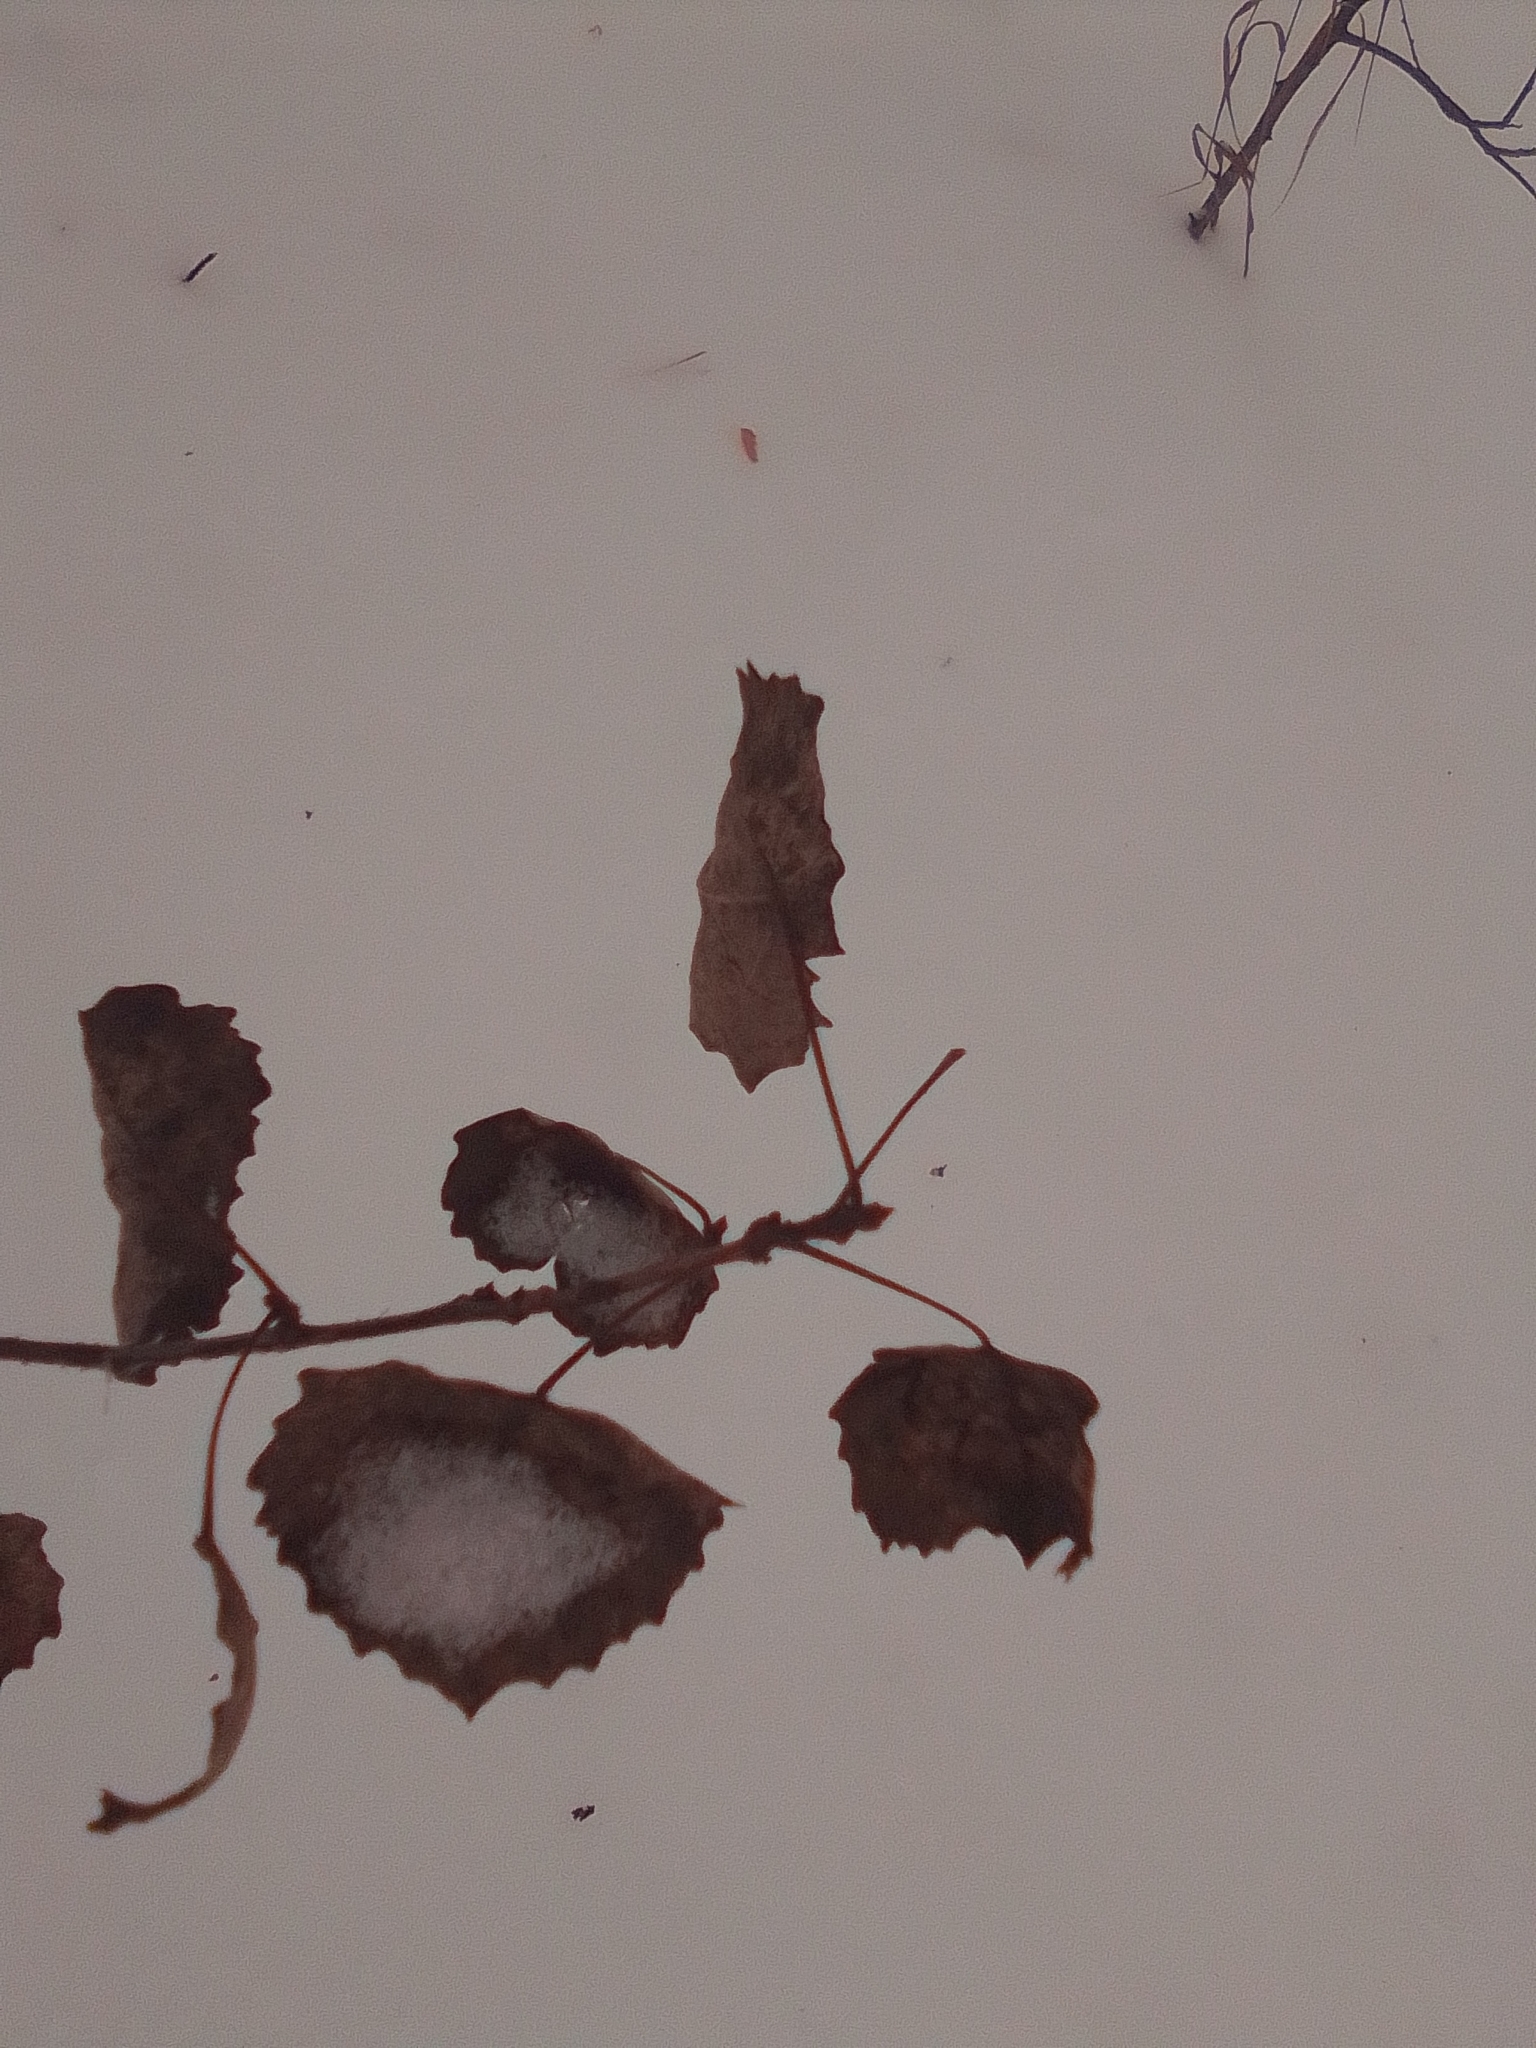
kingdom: Plantae
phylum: Tracheophyta
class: Magnoliopsida
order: Malpighiales
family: Salicaceae
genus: Populus
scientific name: Populus tremula
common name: European aspen
